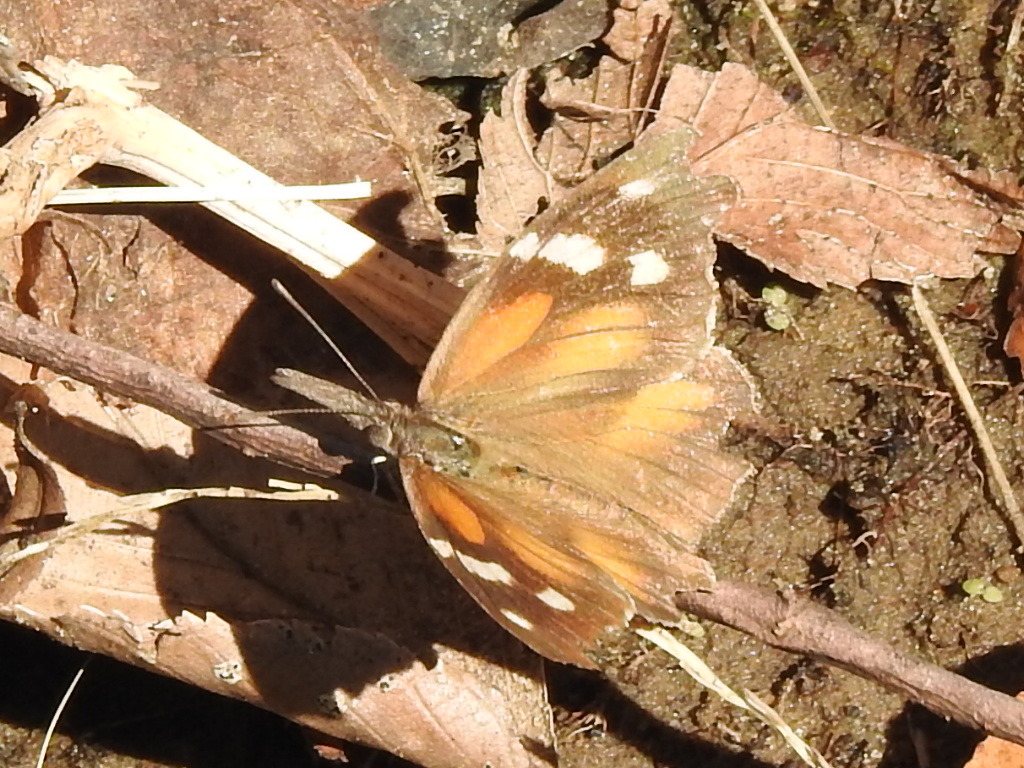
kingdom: Animalia
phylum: Arthropoda
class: Insecta
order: Lepidoptera
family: Nymphalidae
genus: Libytheana
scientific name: Libytheana carinenta
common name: American snout
